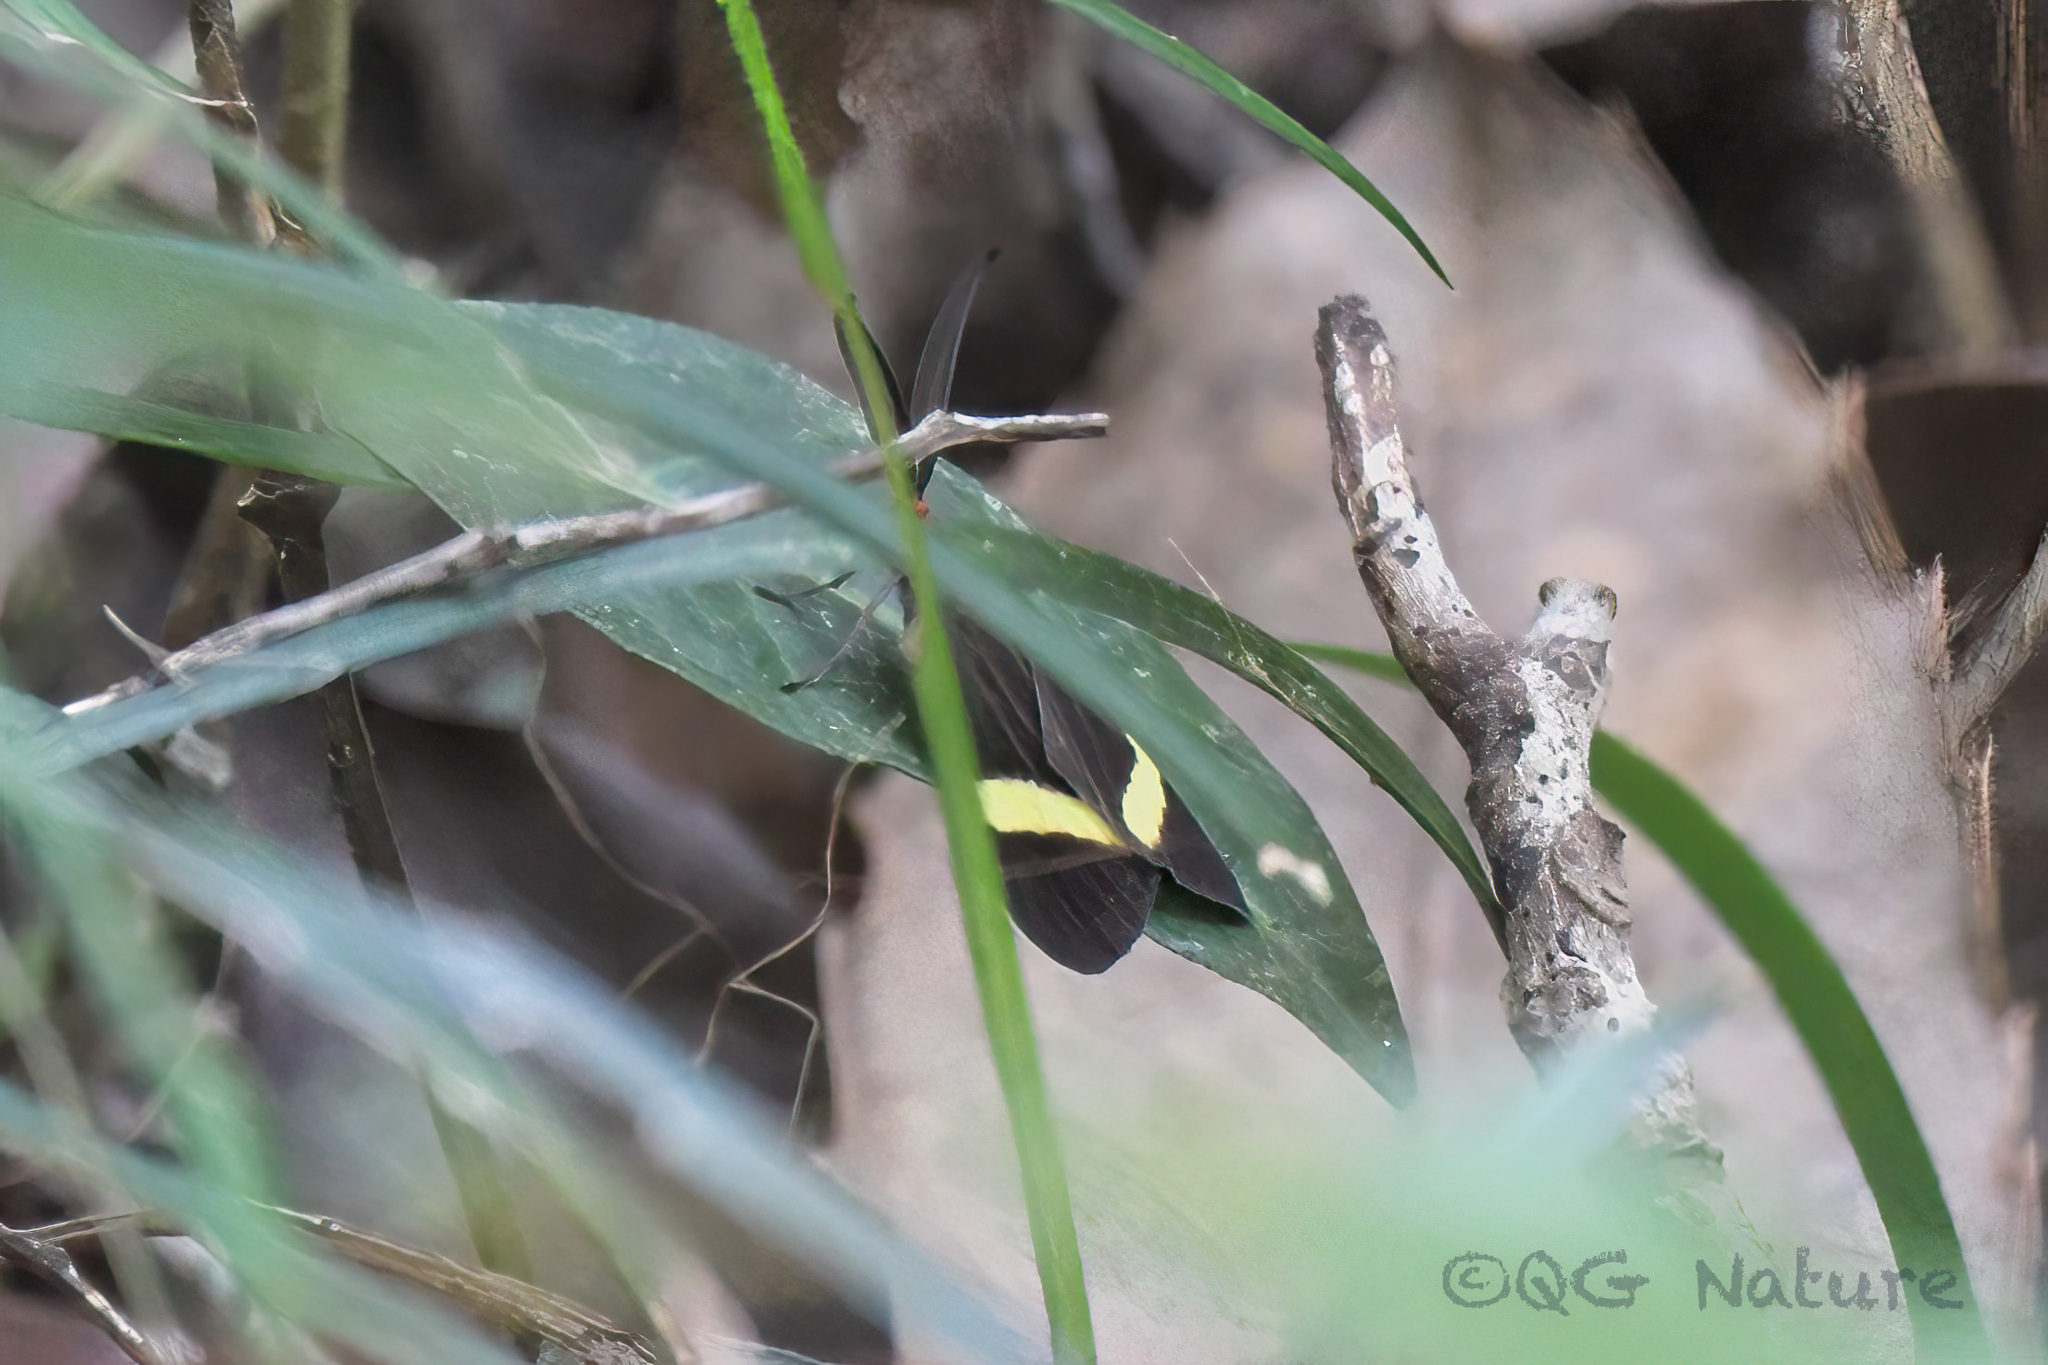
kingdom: Animalia
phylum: Arthropoda
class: Insecta
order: Lepidoptera
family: Zygaenidae
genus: Pidorus
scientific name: Pidorus gemina
